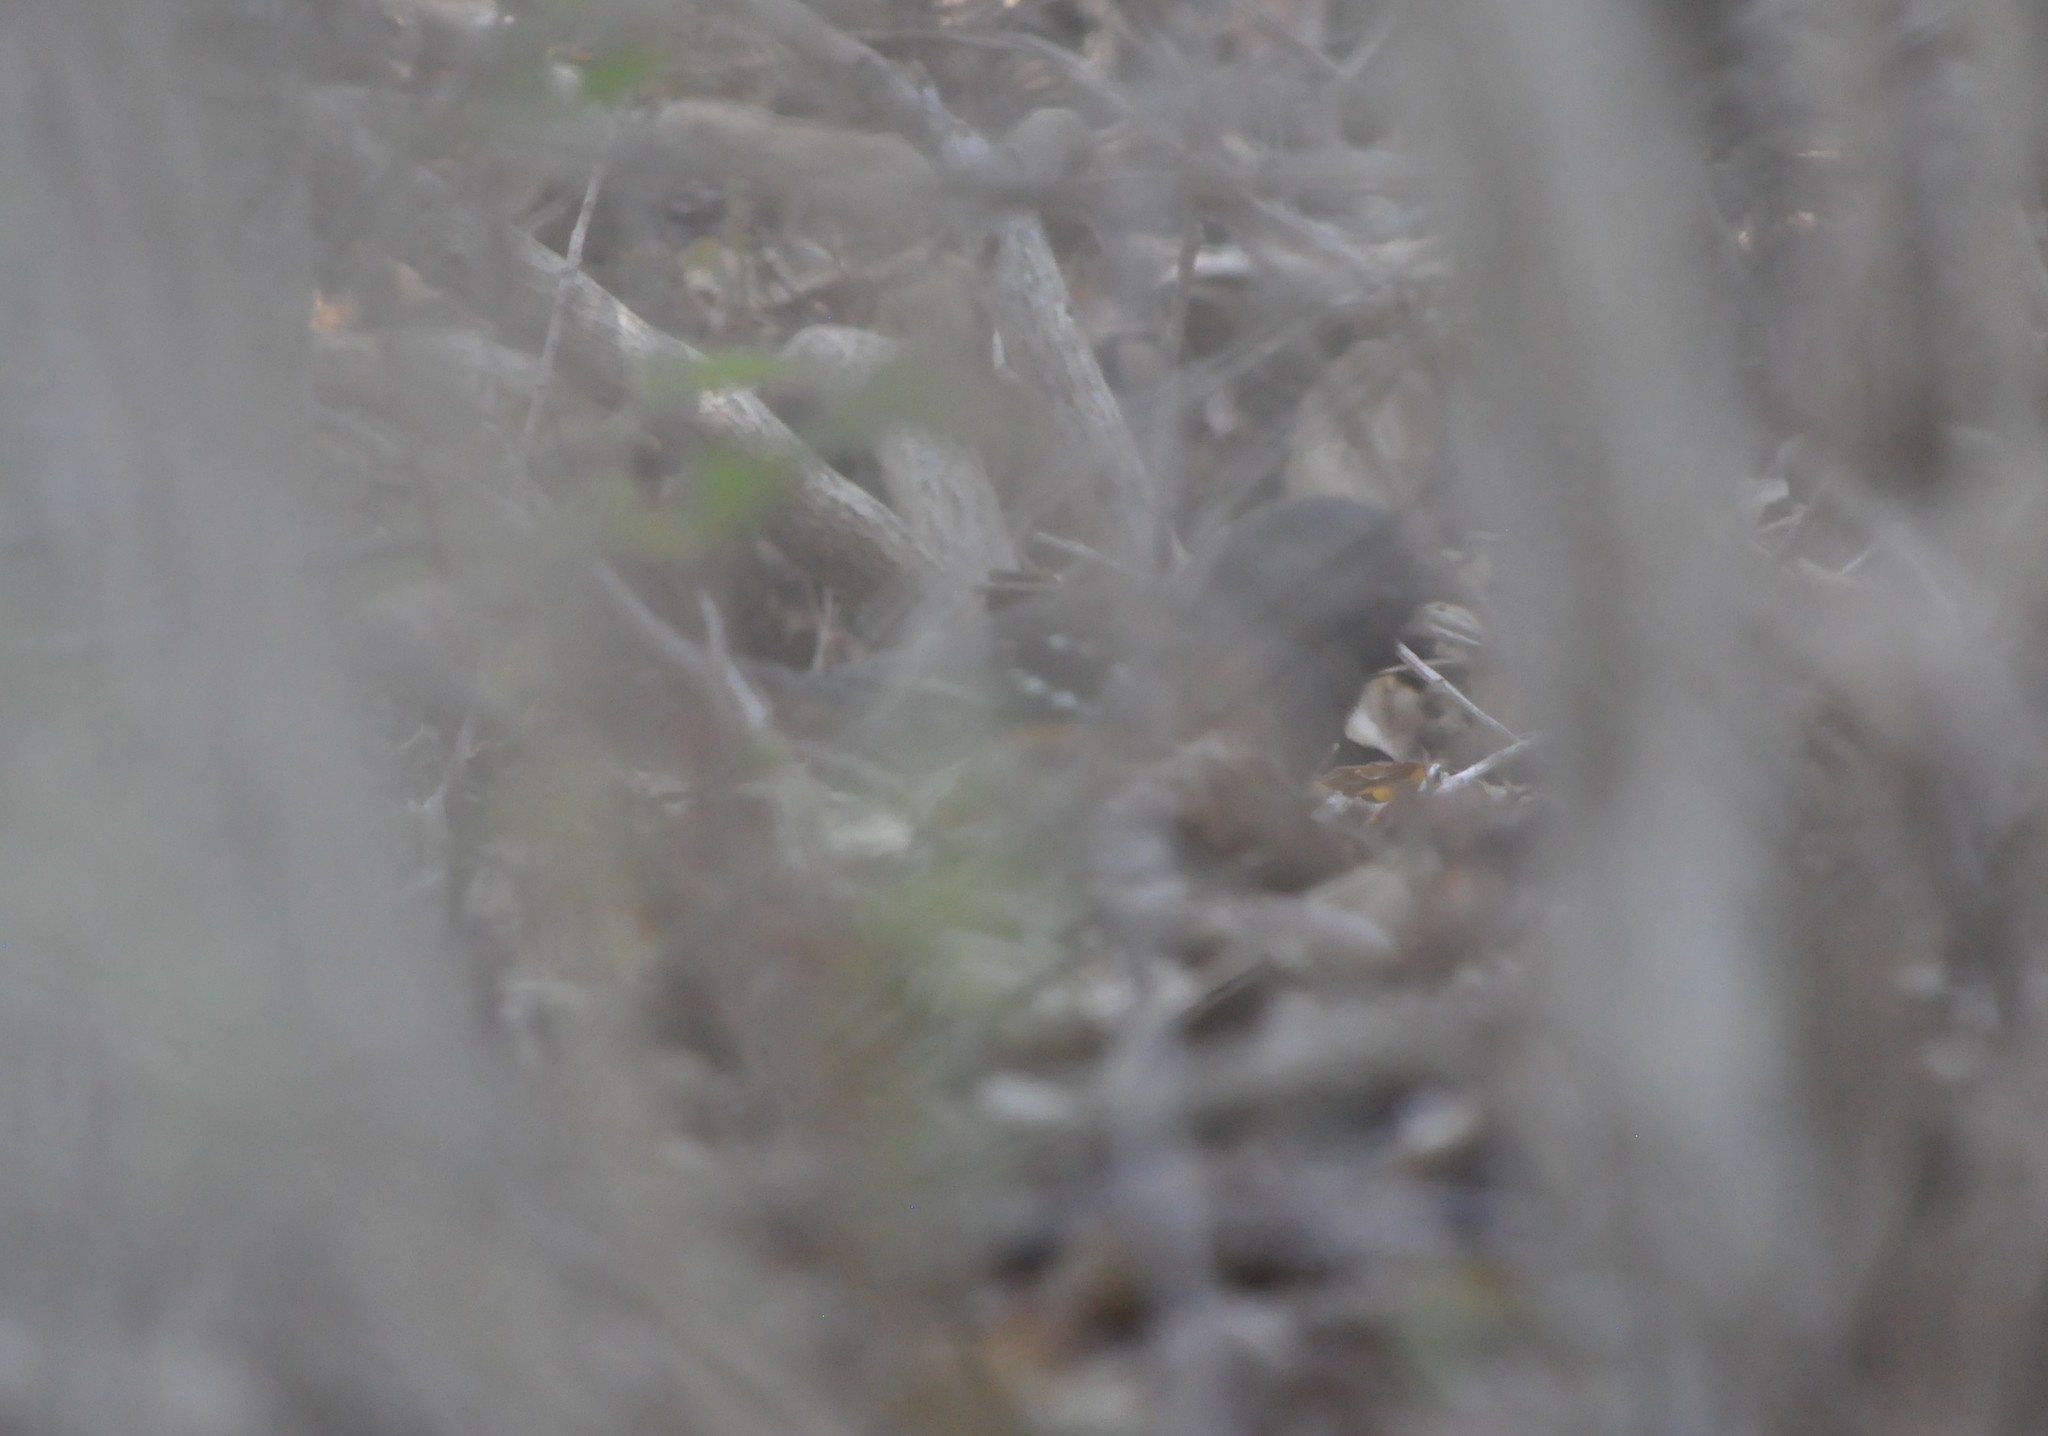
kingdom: Animalia
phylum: Chordata
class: Aves
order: Passeriformes
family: Passerellidae
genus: Pipilo
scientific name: Pipilo maculatus
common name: Spotted towhee
